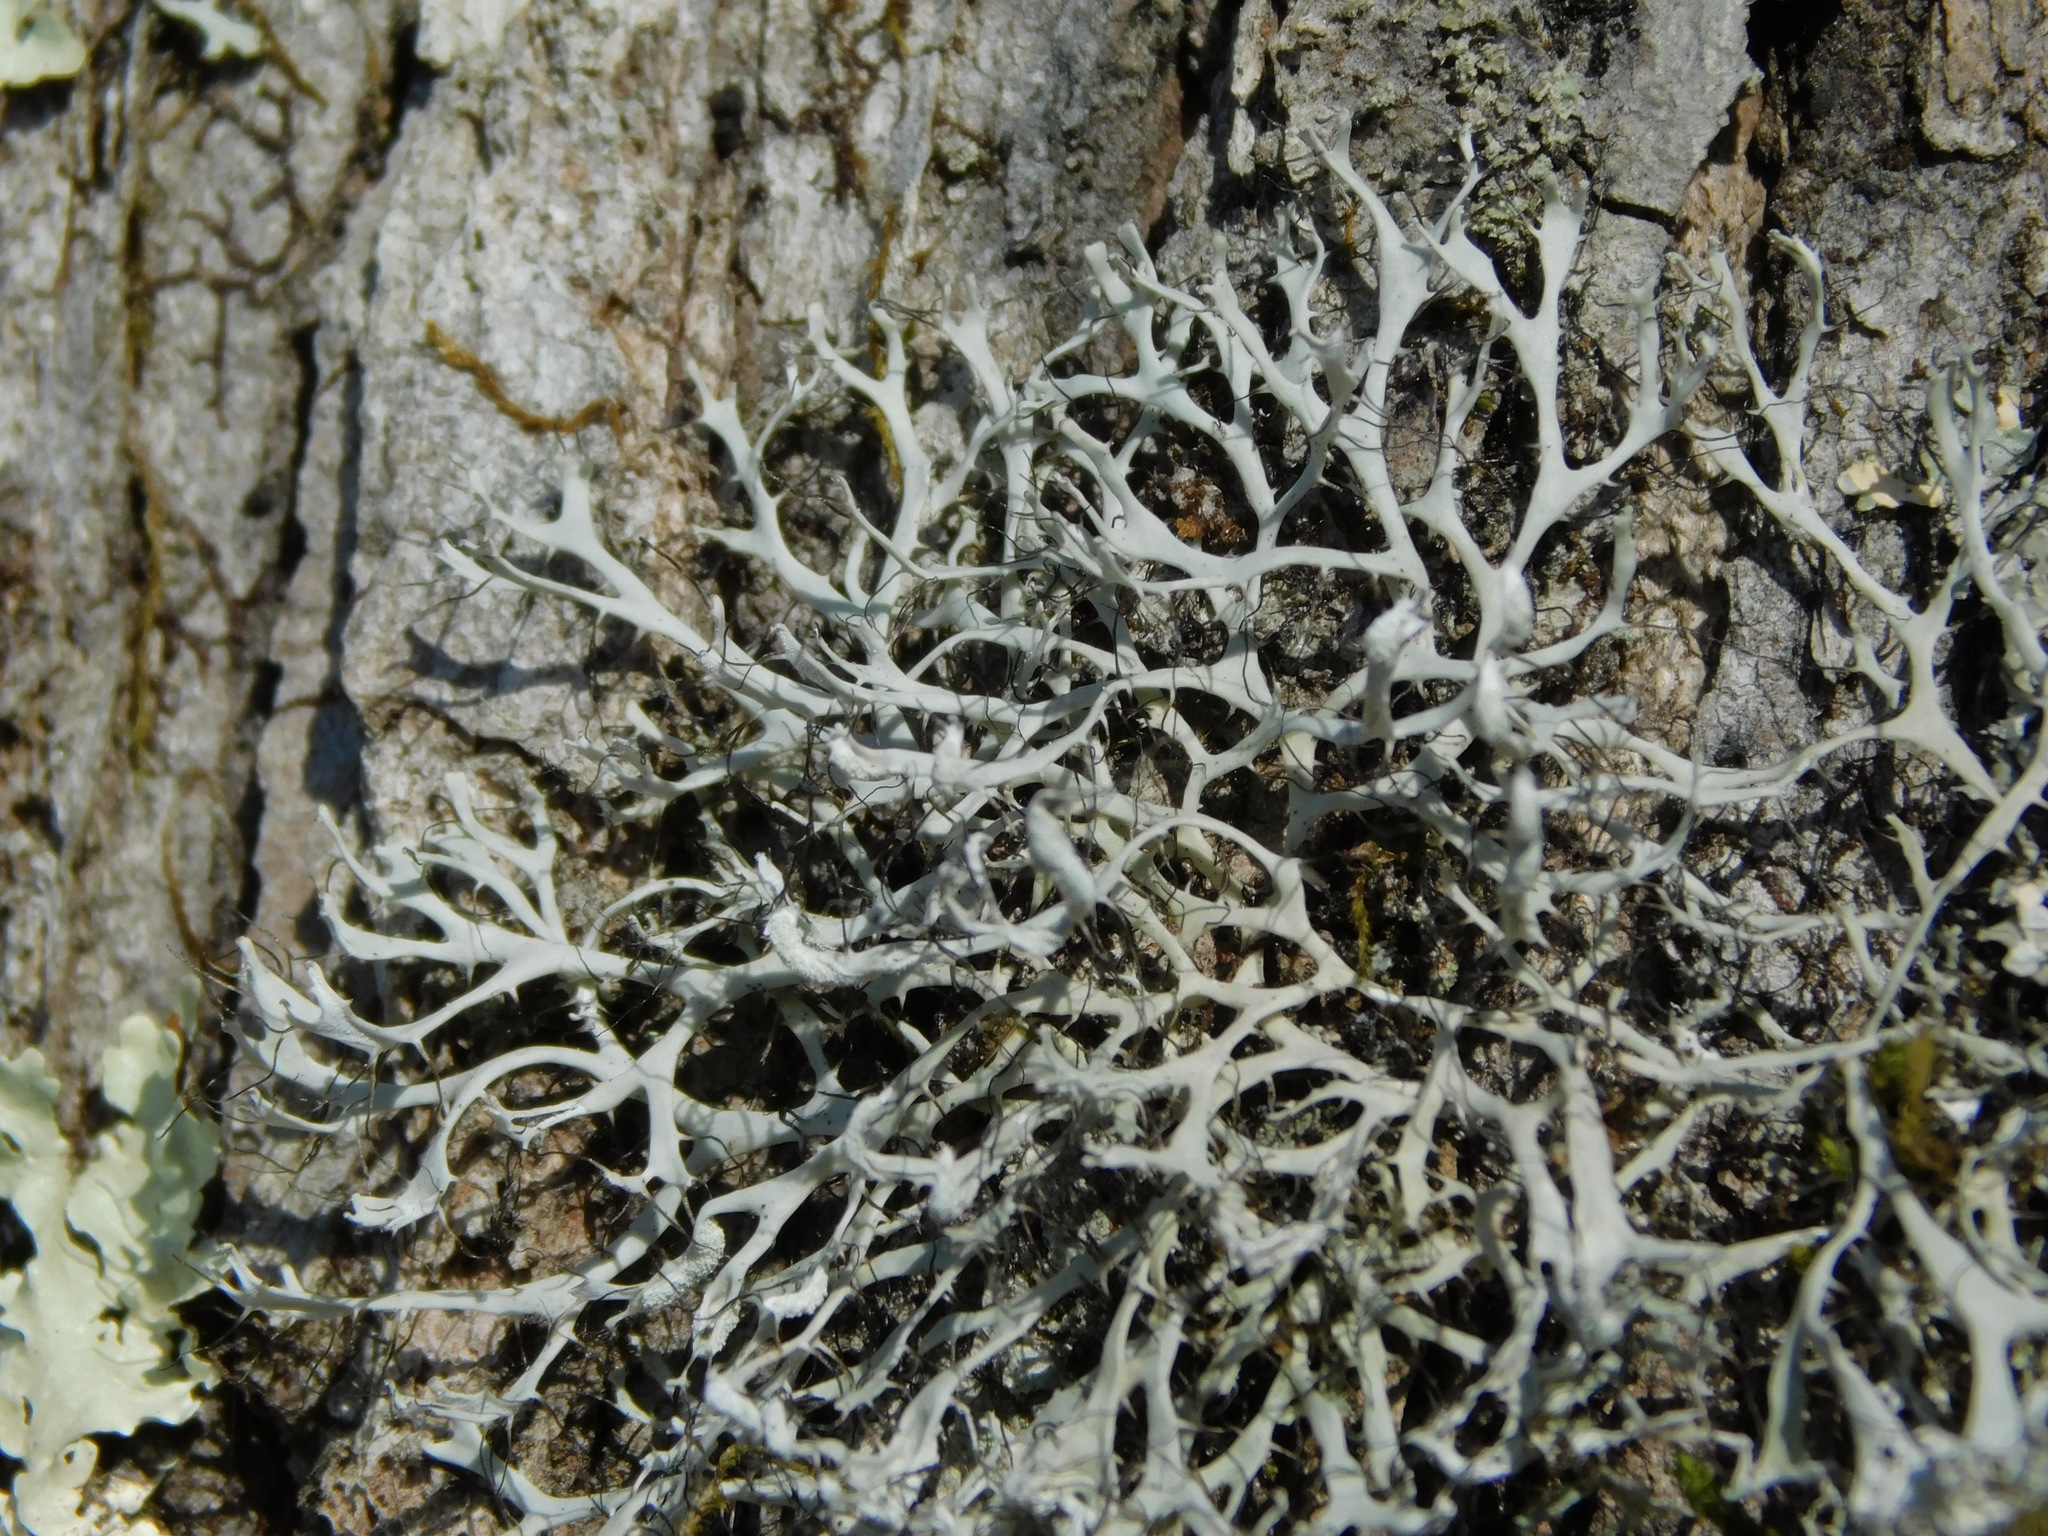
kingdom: Fungi
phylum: Ascomycota
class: Lecanoromycetes
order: Caliciales
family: Physciaceae
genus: Leucodermia
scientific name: Leucodermia appalachensis
